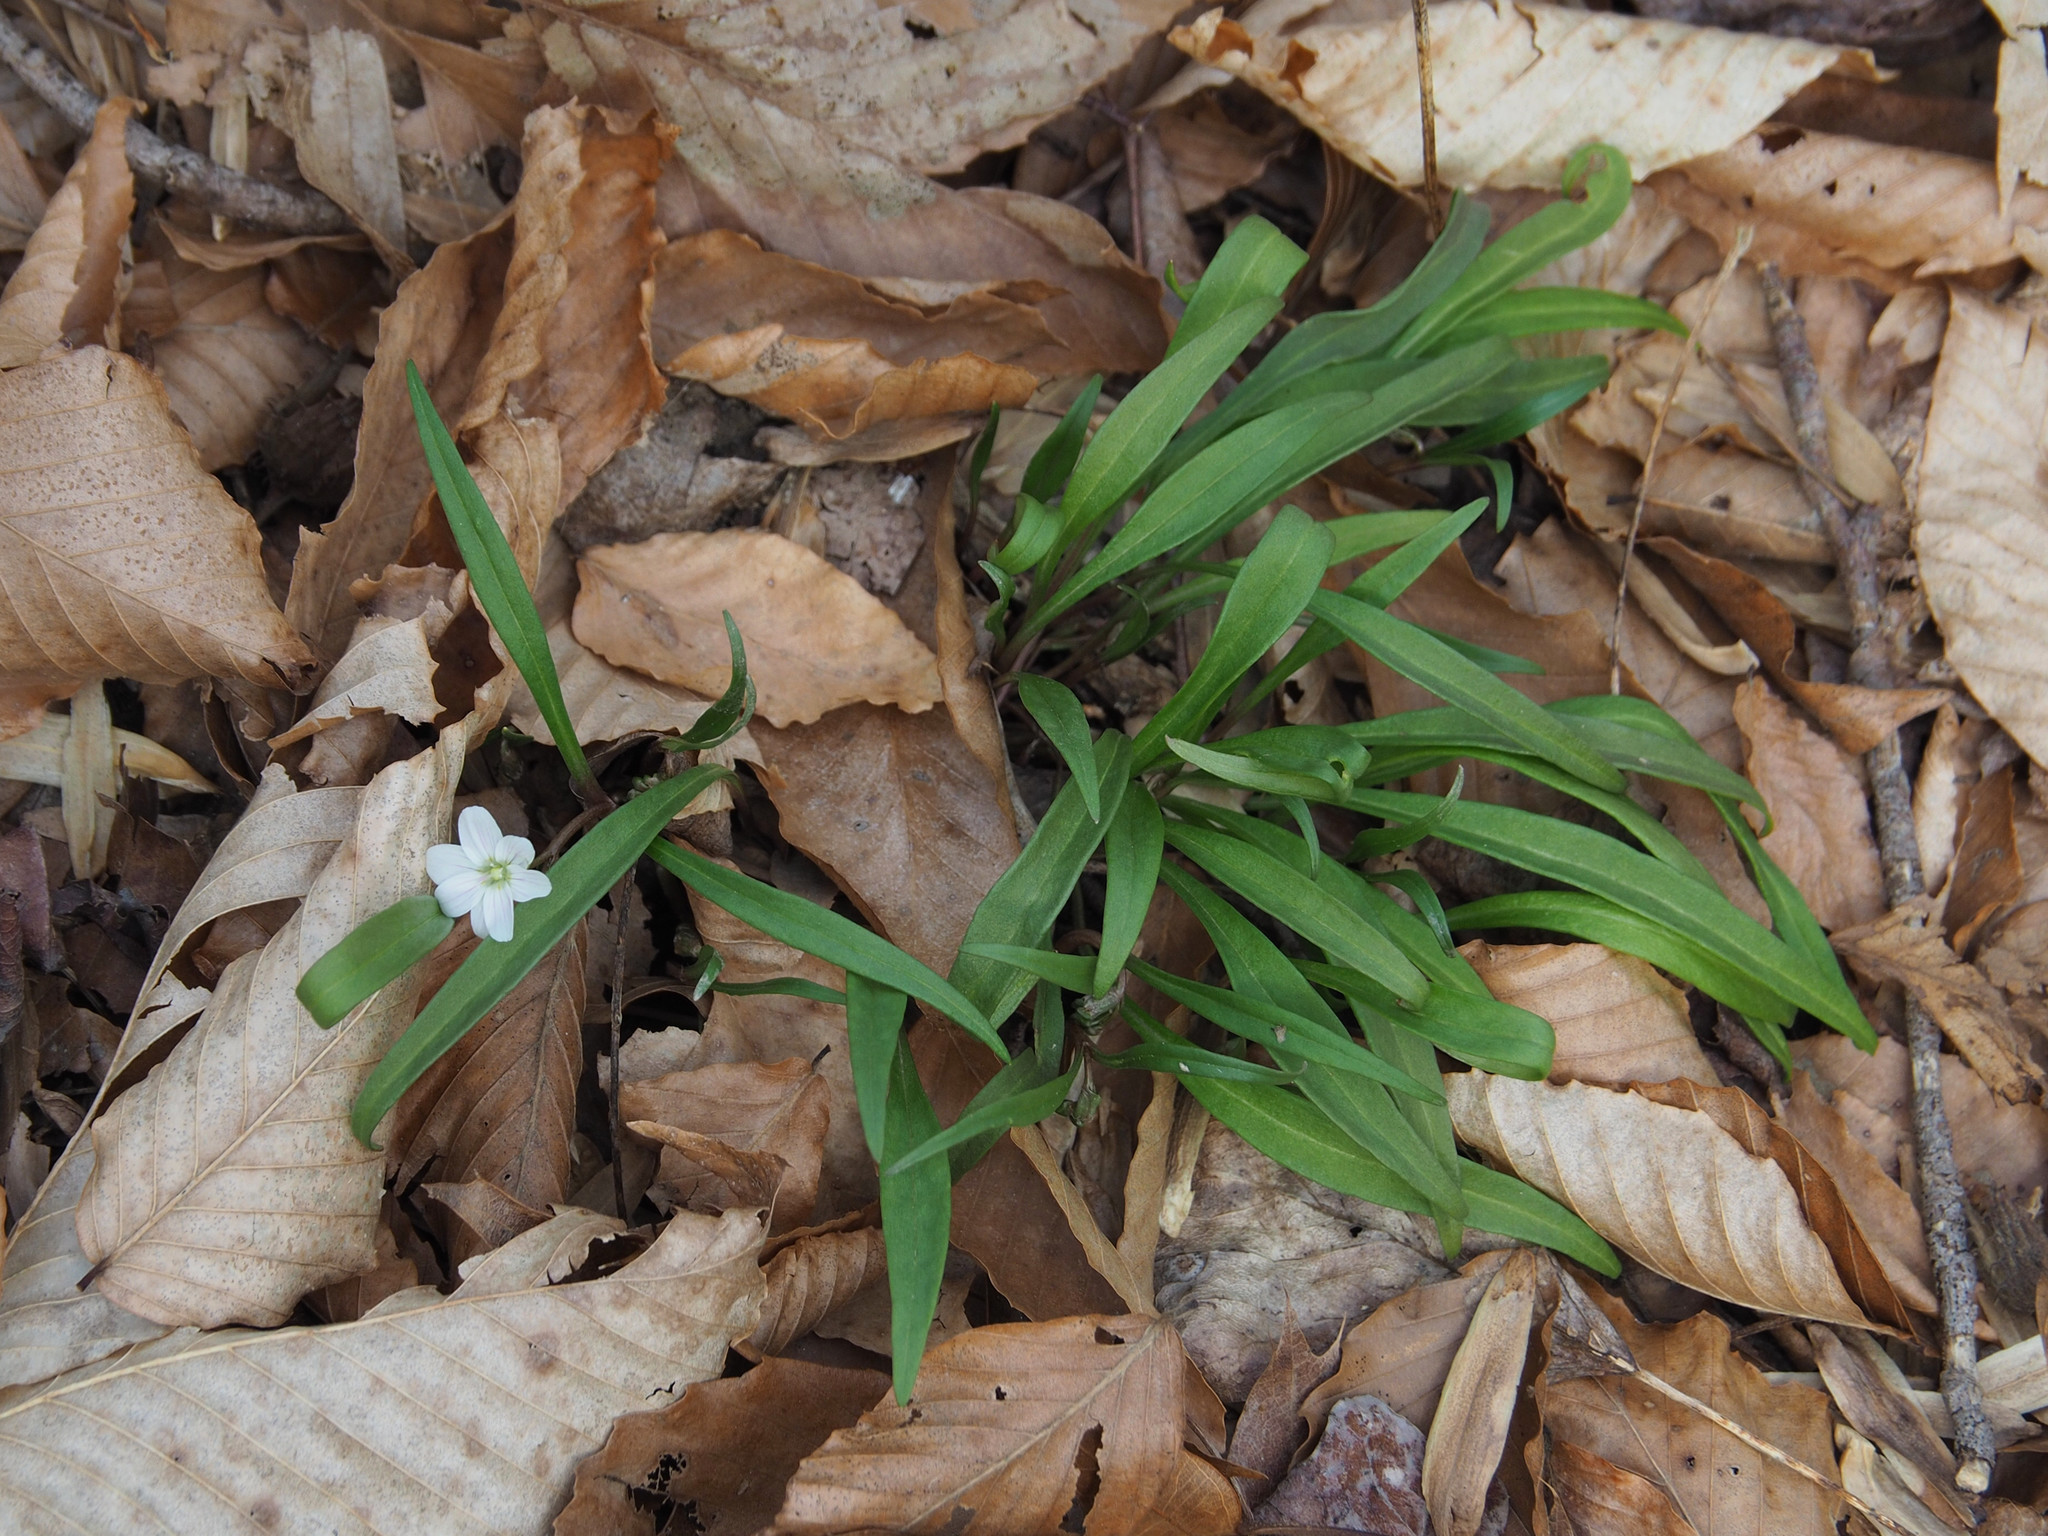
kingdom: Plantae
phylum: Tracheophyta
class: Magnoliopsida
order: Caryophyllales
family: Montiaceae
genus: Claytonia
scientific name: Claytonia virginica
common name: Virginia springbeauty
